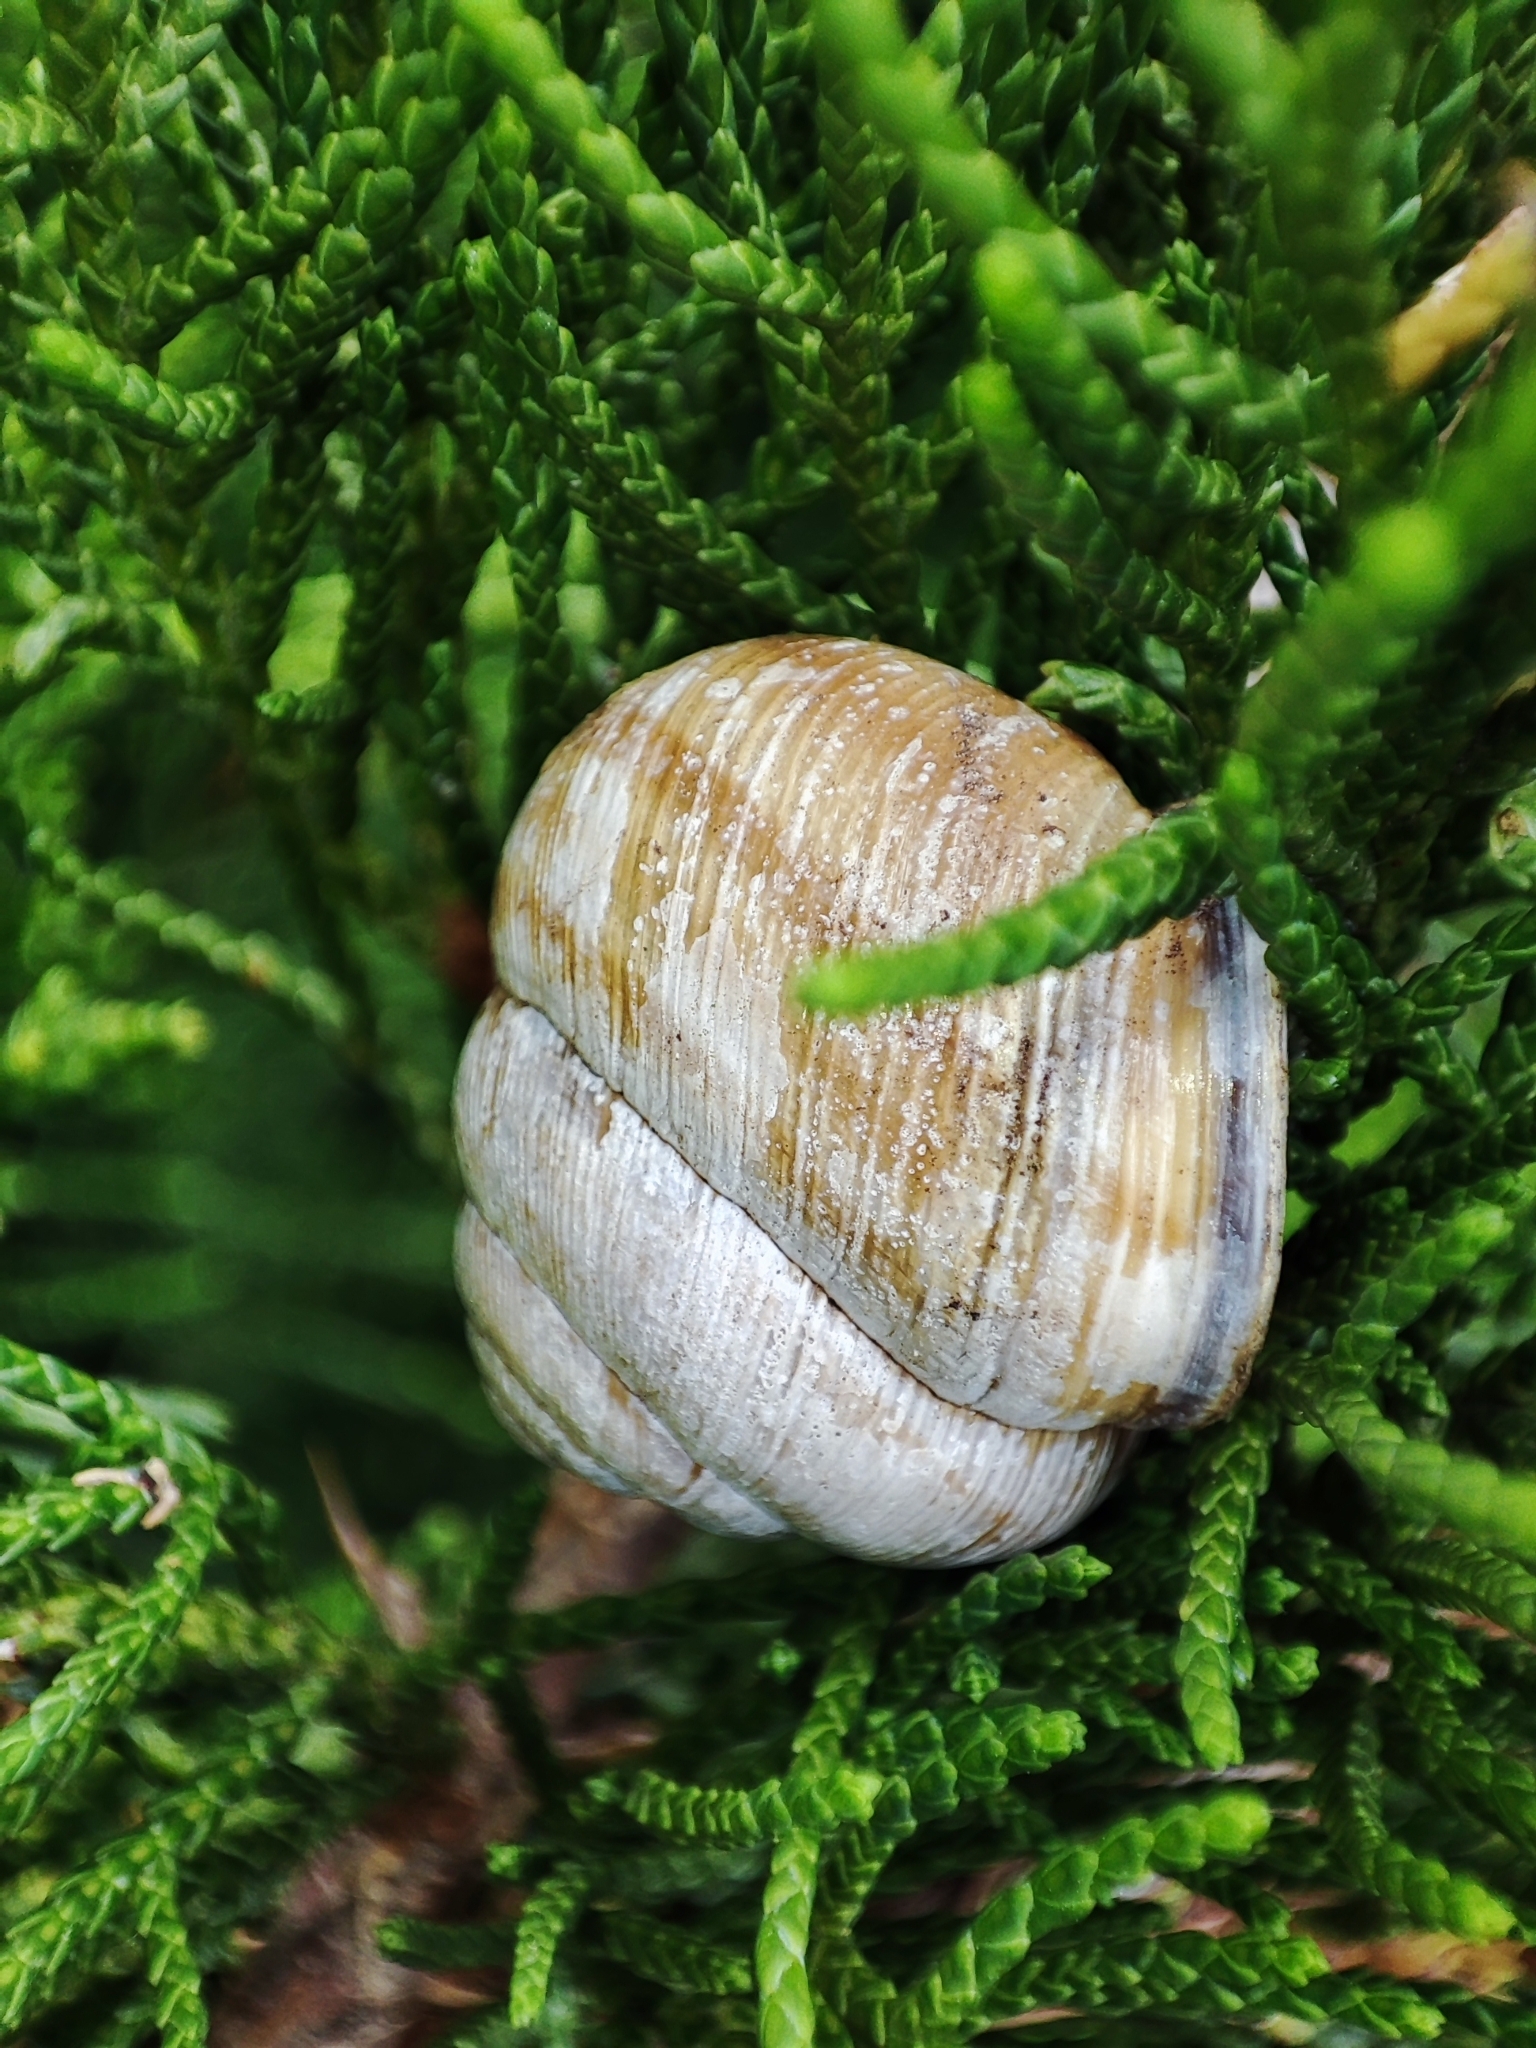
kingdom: Animalia
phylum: Mollusca
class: Gastropoda
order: Stylommatophora
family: Helicidae
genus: Caucasotachea
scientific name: Caucasotachea vindobonensis
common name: European helicid land snail
